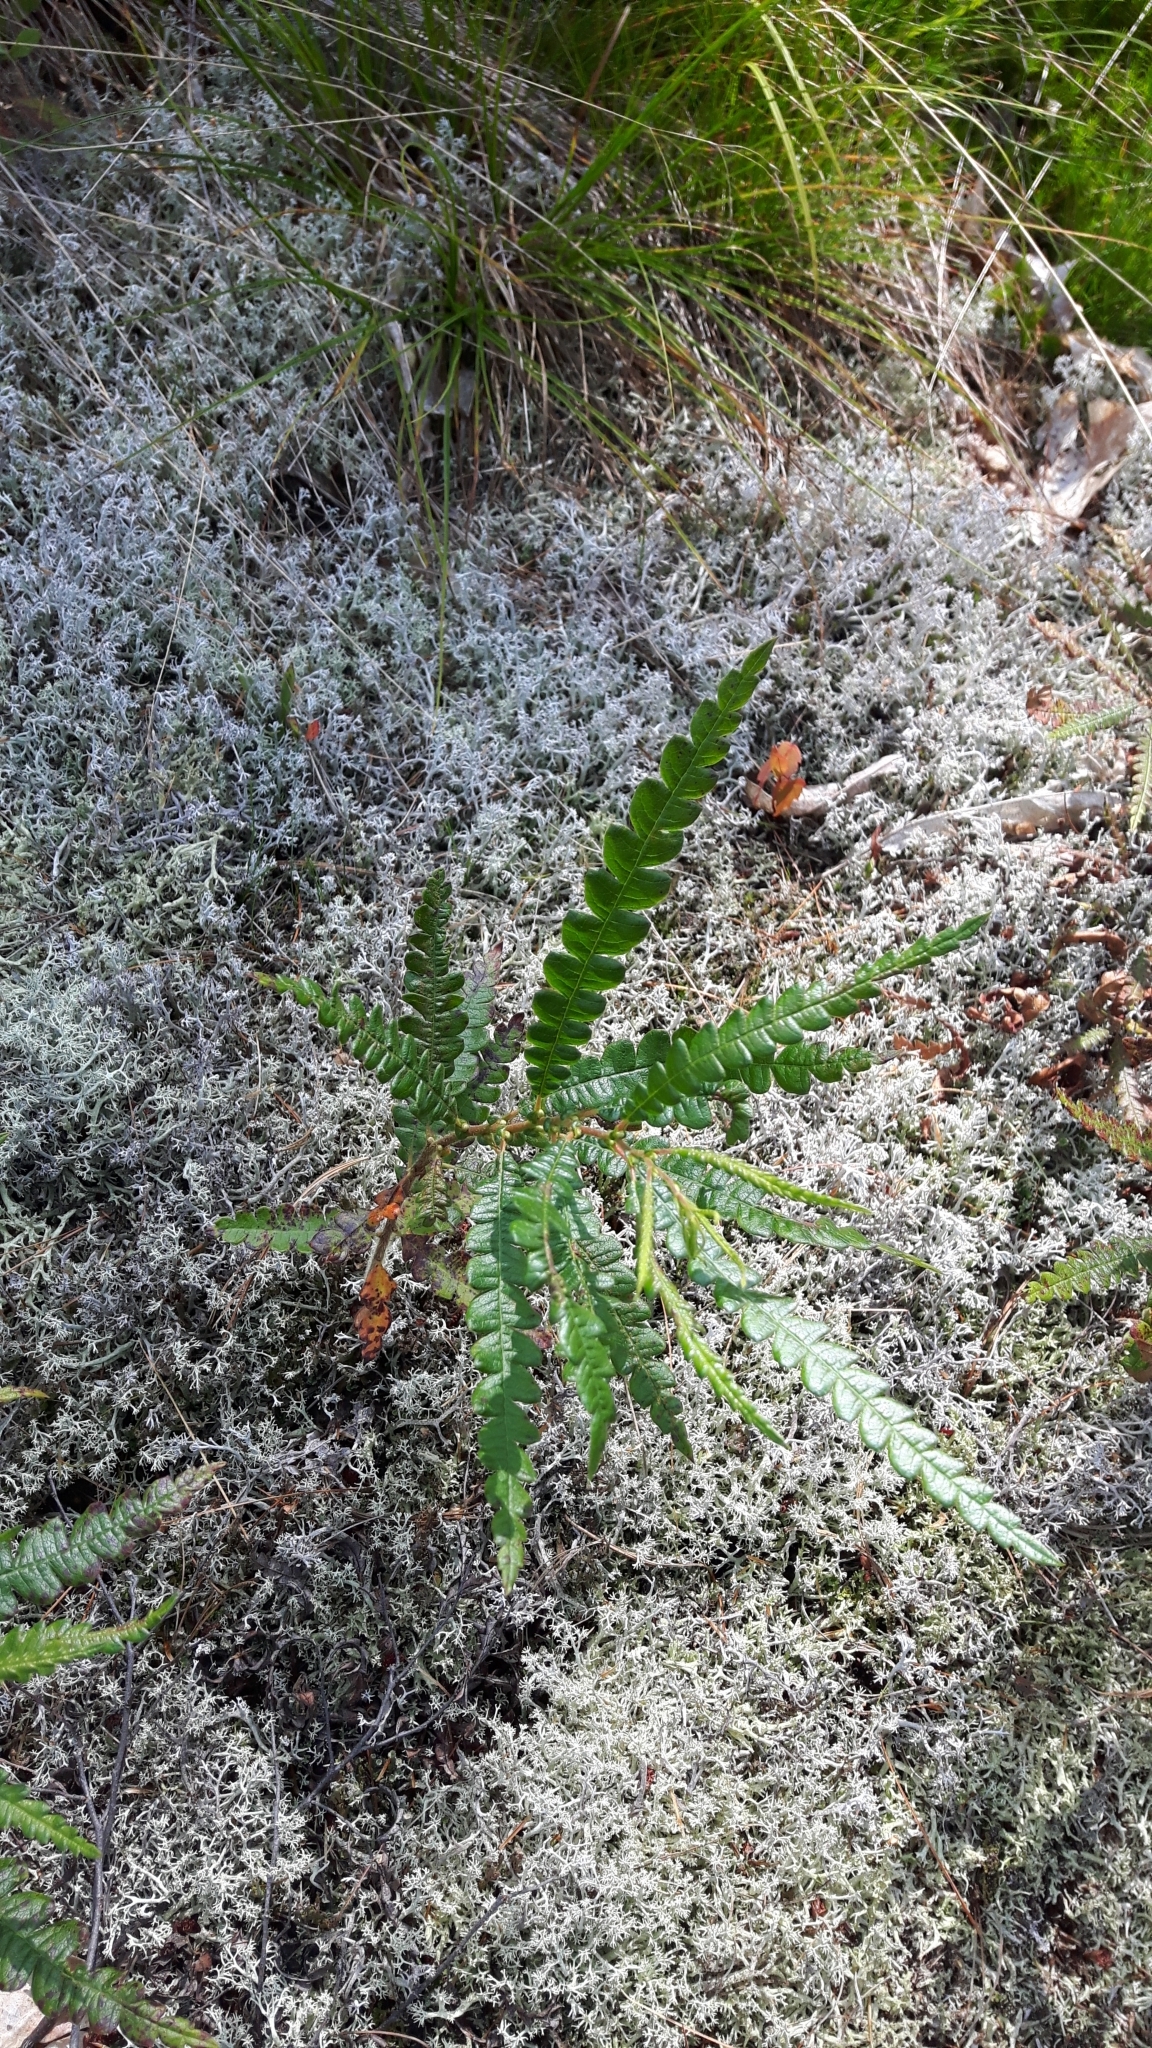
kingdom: Plantae
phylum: Tracheophyta
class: Magnoliopsida
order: Fagales
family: Myricaceae
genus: Comptonia
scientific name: Comptonia peregrina
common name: Sweet-fern
